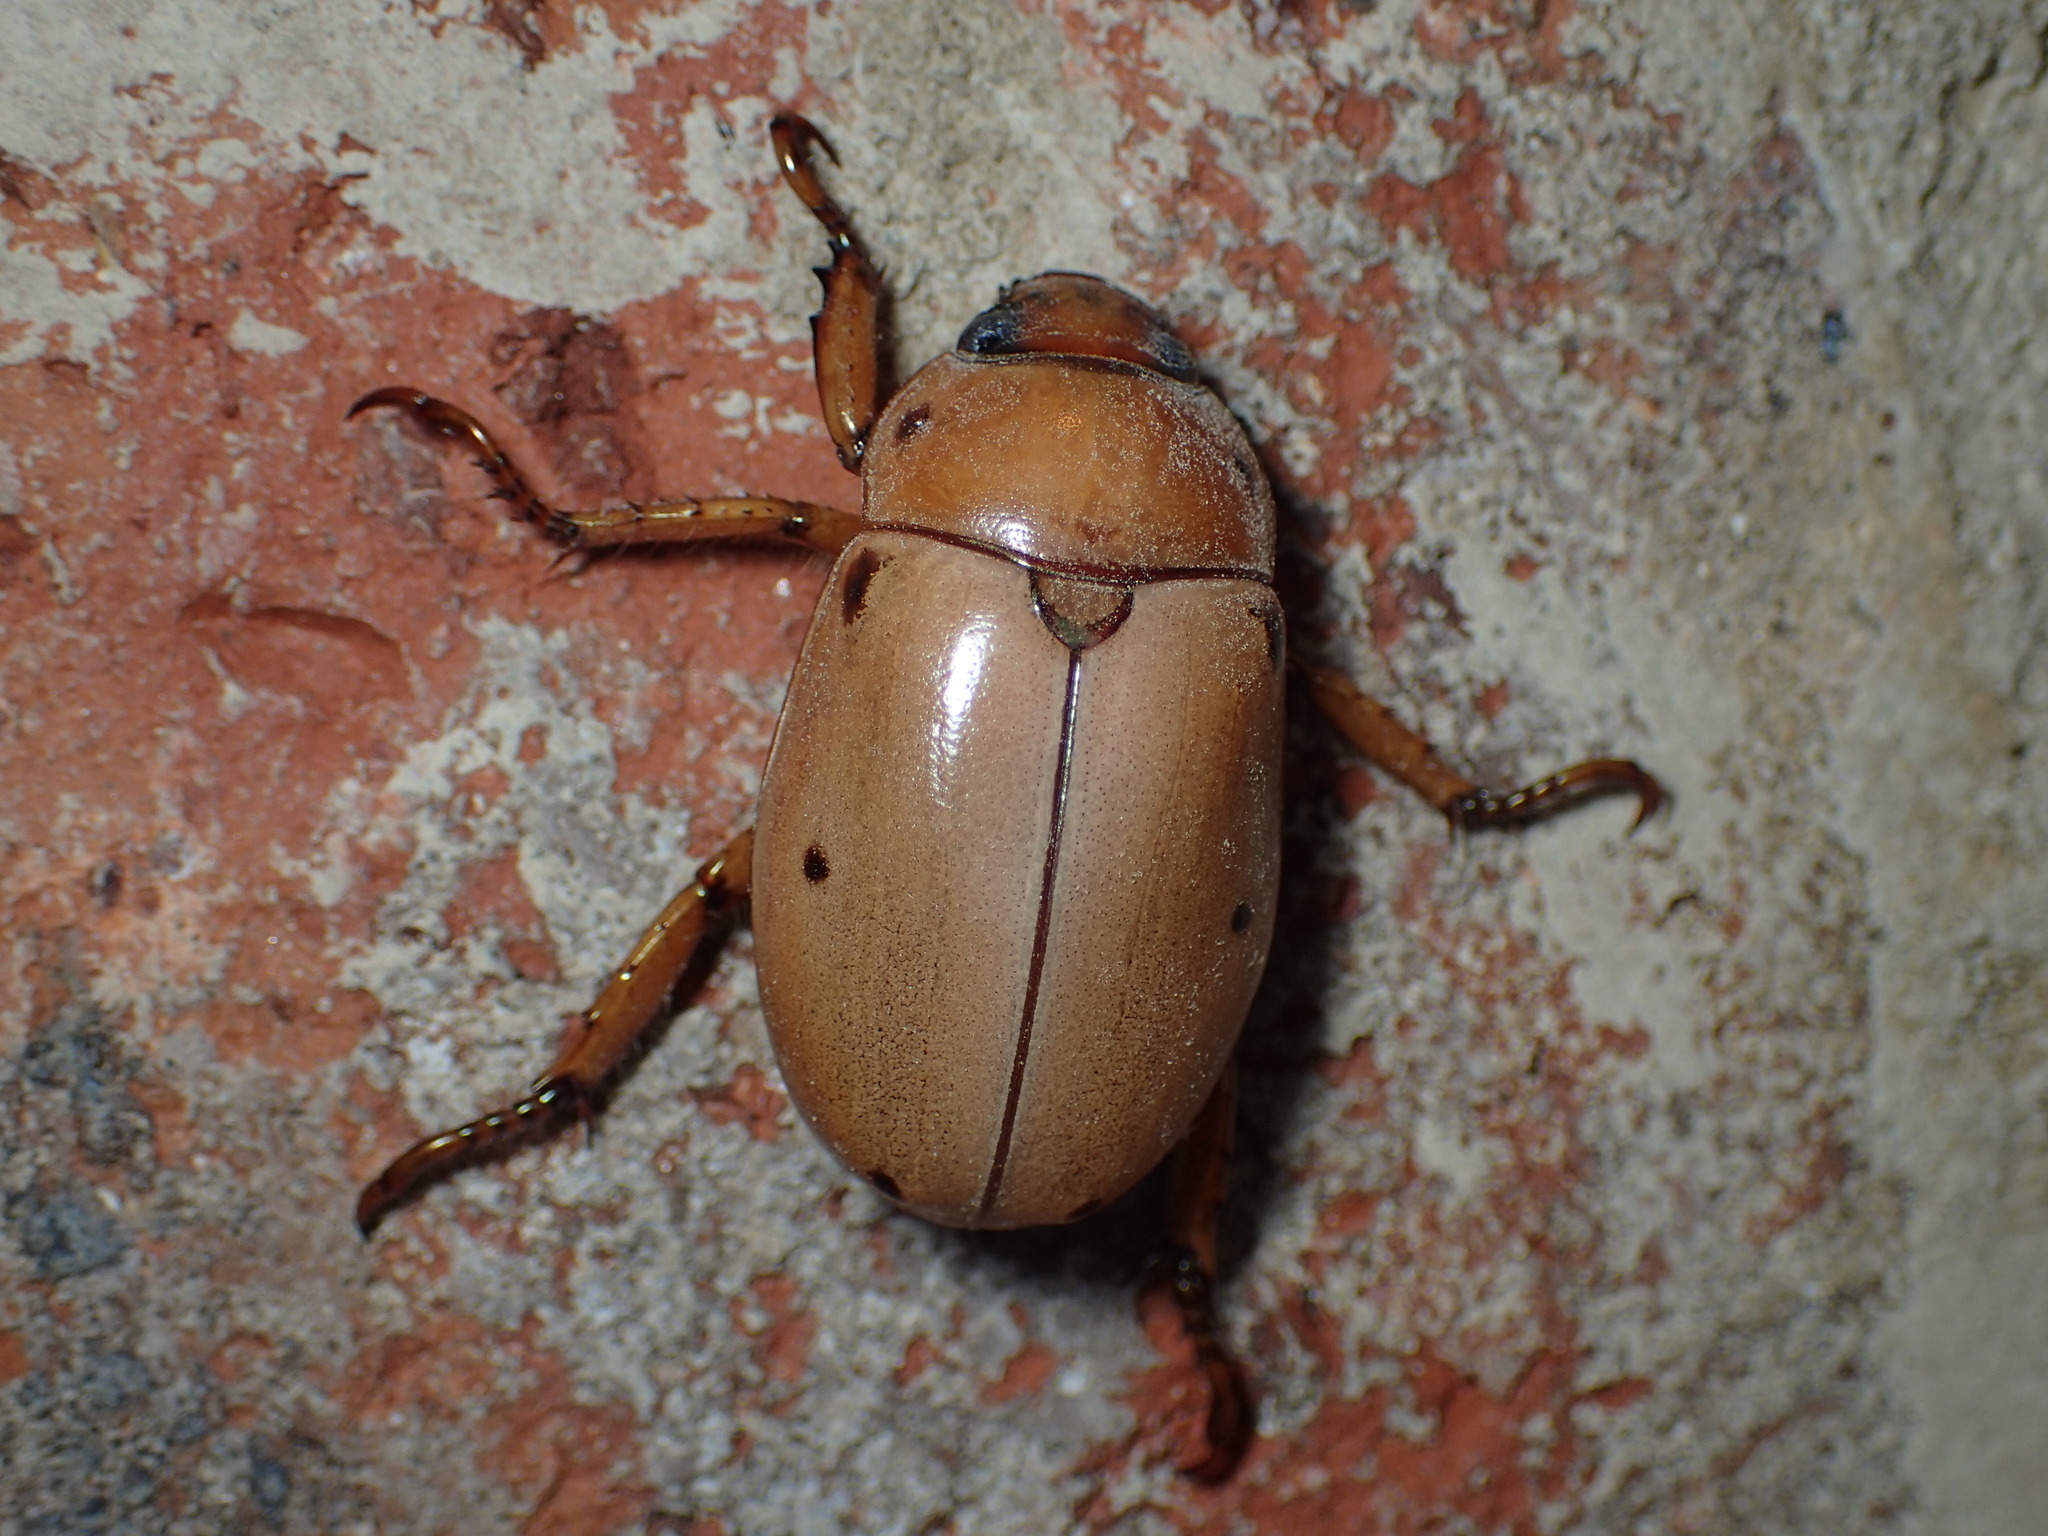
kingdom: Animalia
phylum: Arthropoda
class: Insecta
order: Coleoptera
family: Scarabaeidae
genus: Pelidnota
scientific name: Pelidnota punctata
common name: Grapevine beetle
